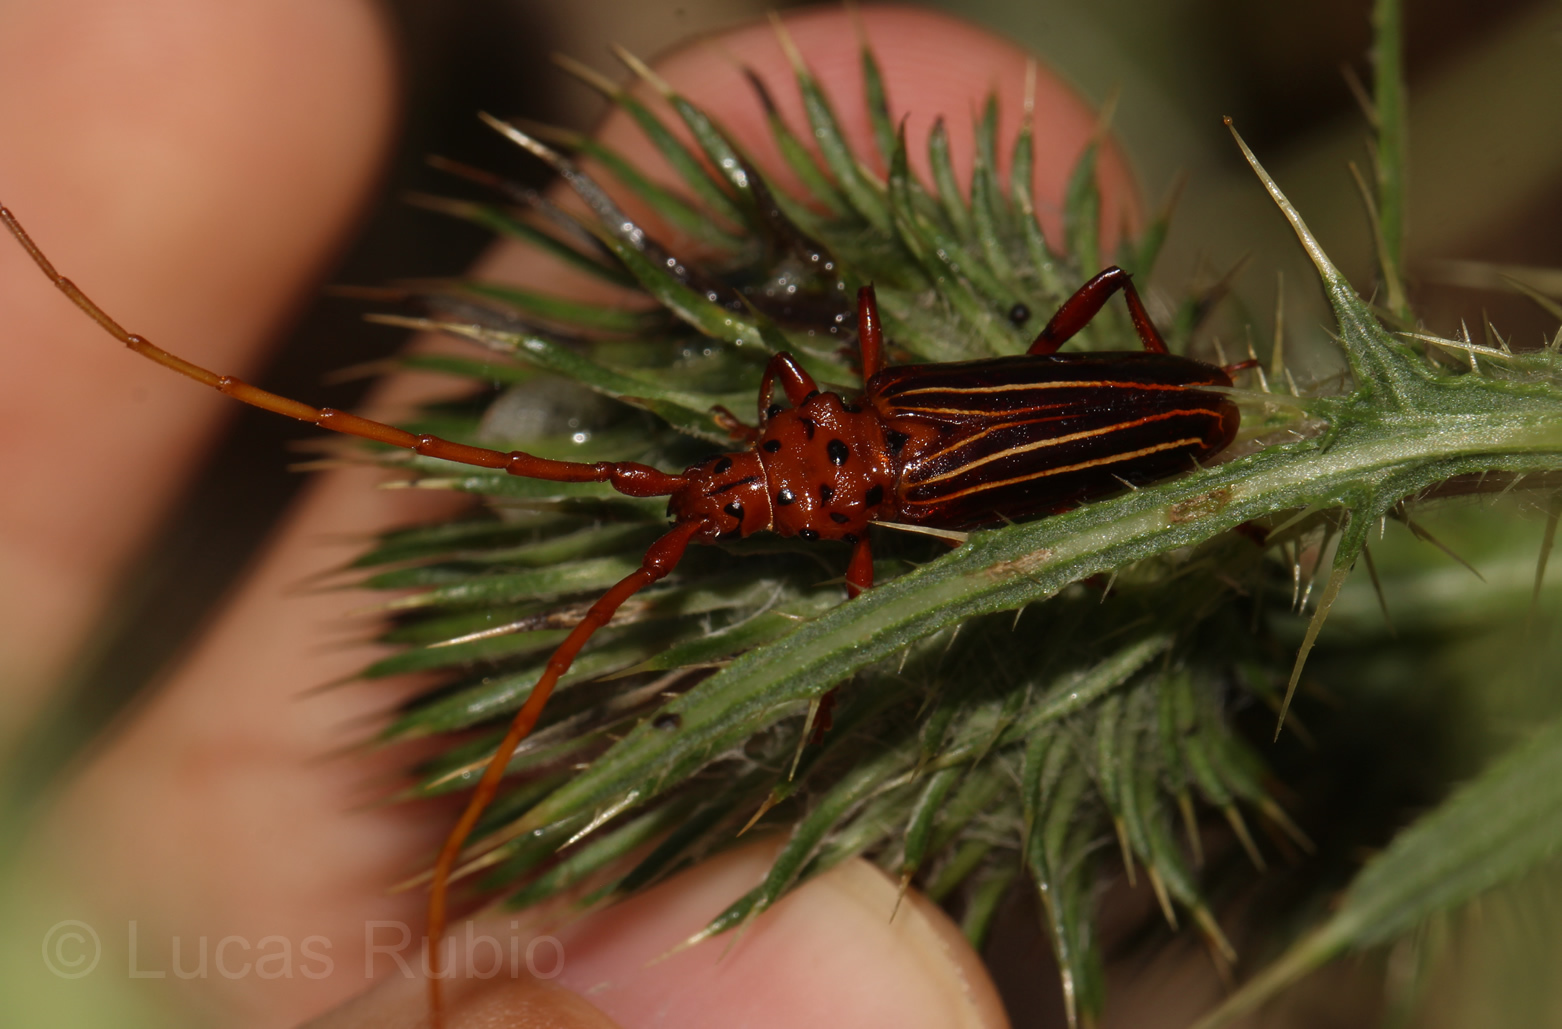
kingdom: Animalia
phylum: Arthropoda
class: Insecta
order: Coleoptera
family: Cerambycidae
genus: Chydarteres
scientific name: Chydarteres striatus
